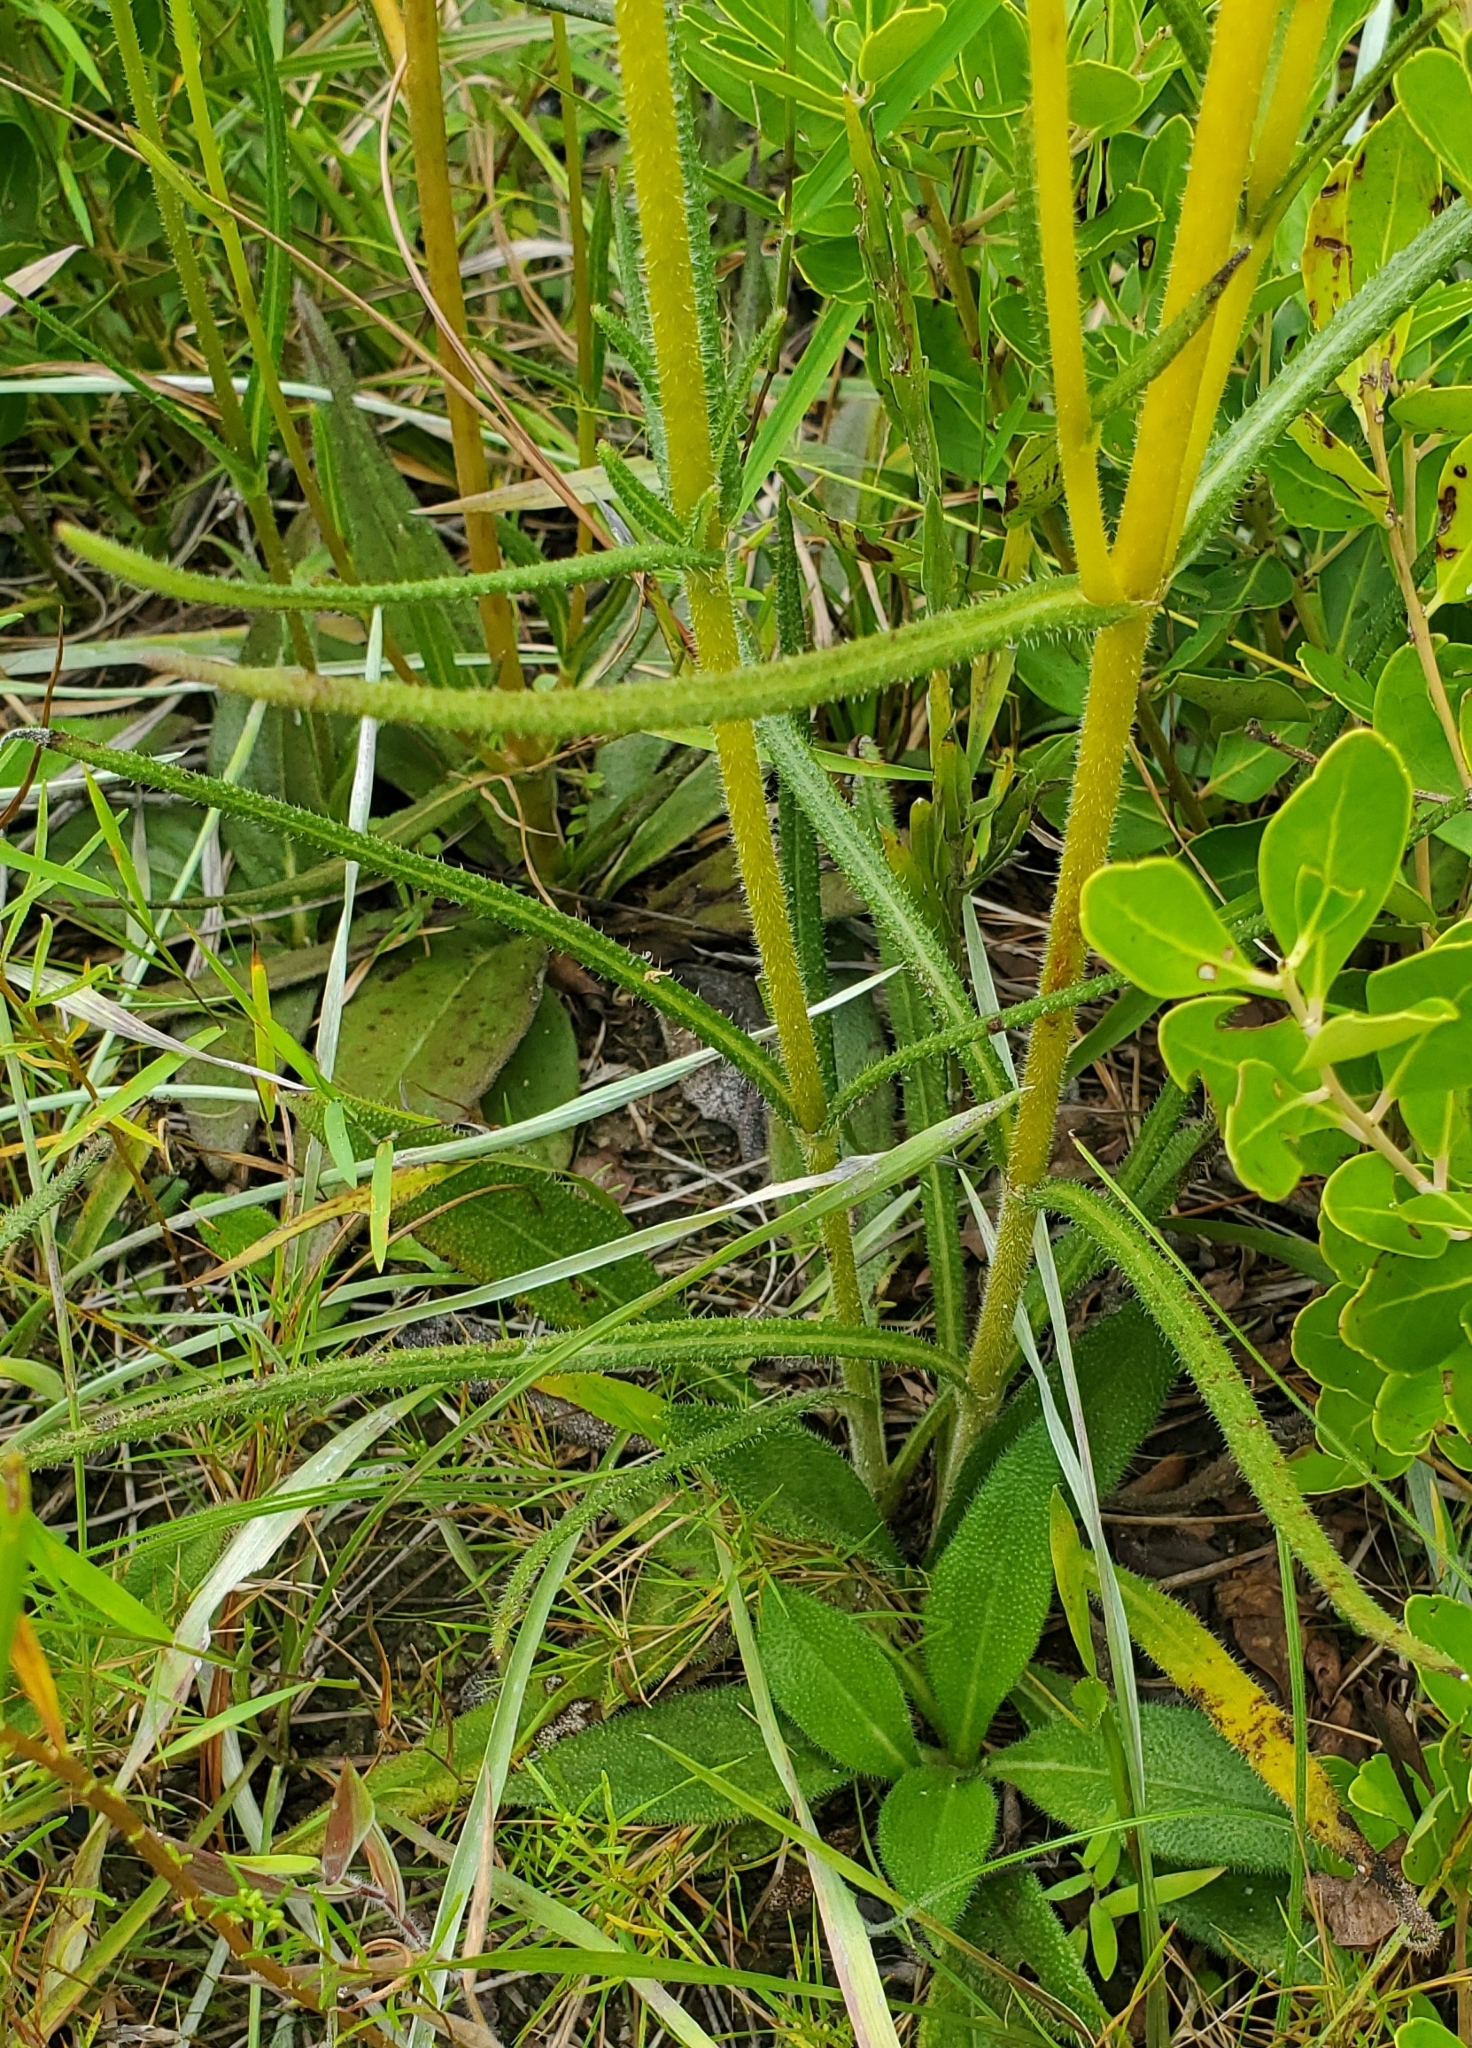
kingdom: Plantae
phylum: Tracheophyta
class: Magnoliopsida
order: Asterales
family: Asteraceae
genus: Helianthus
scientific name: Helianthus heterophyllus
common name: Wetland sunflower
